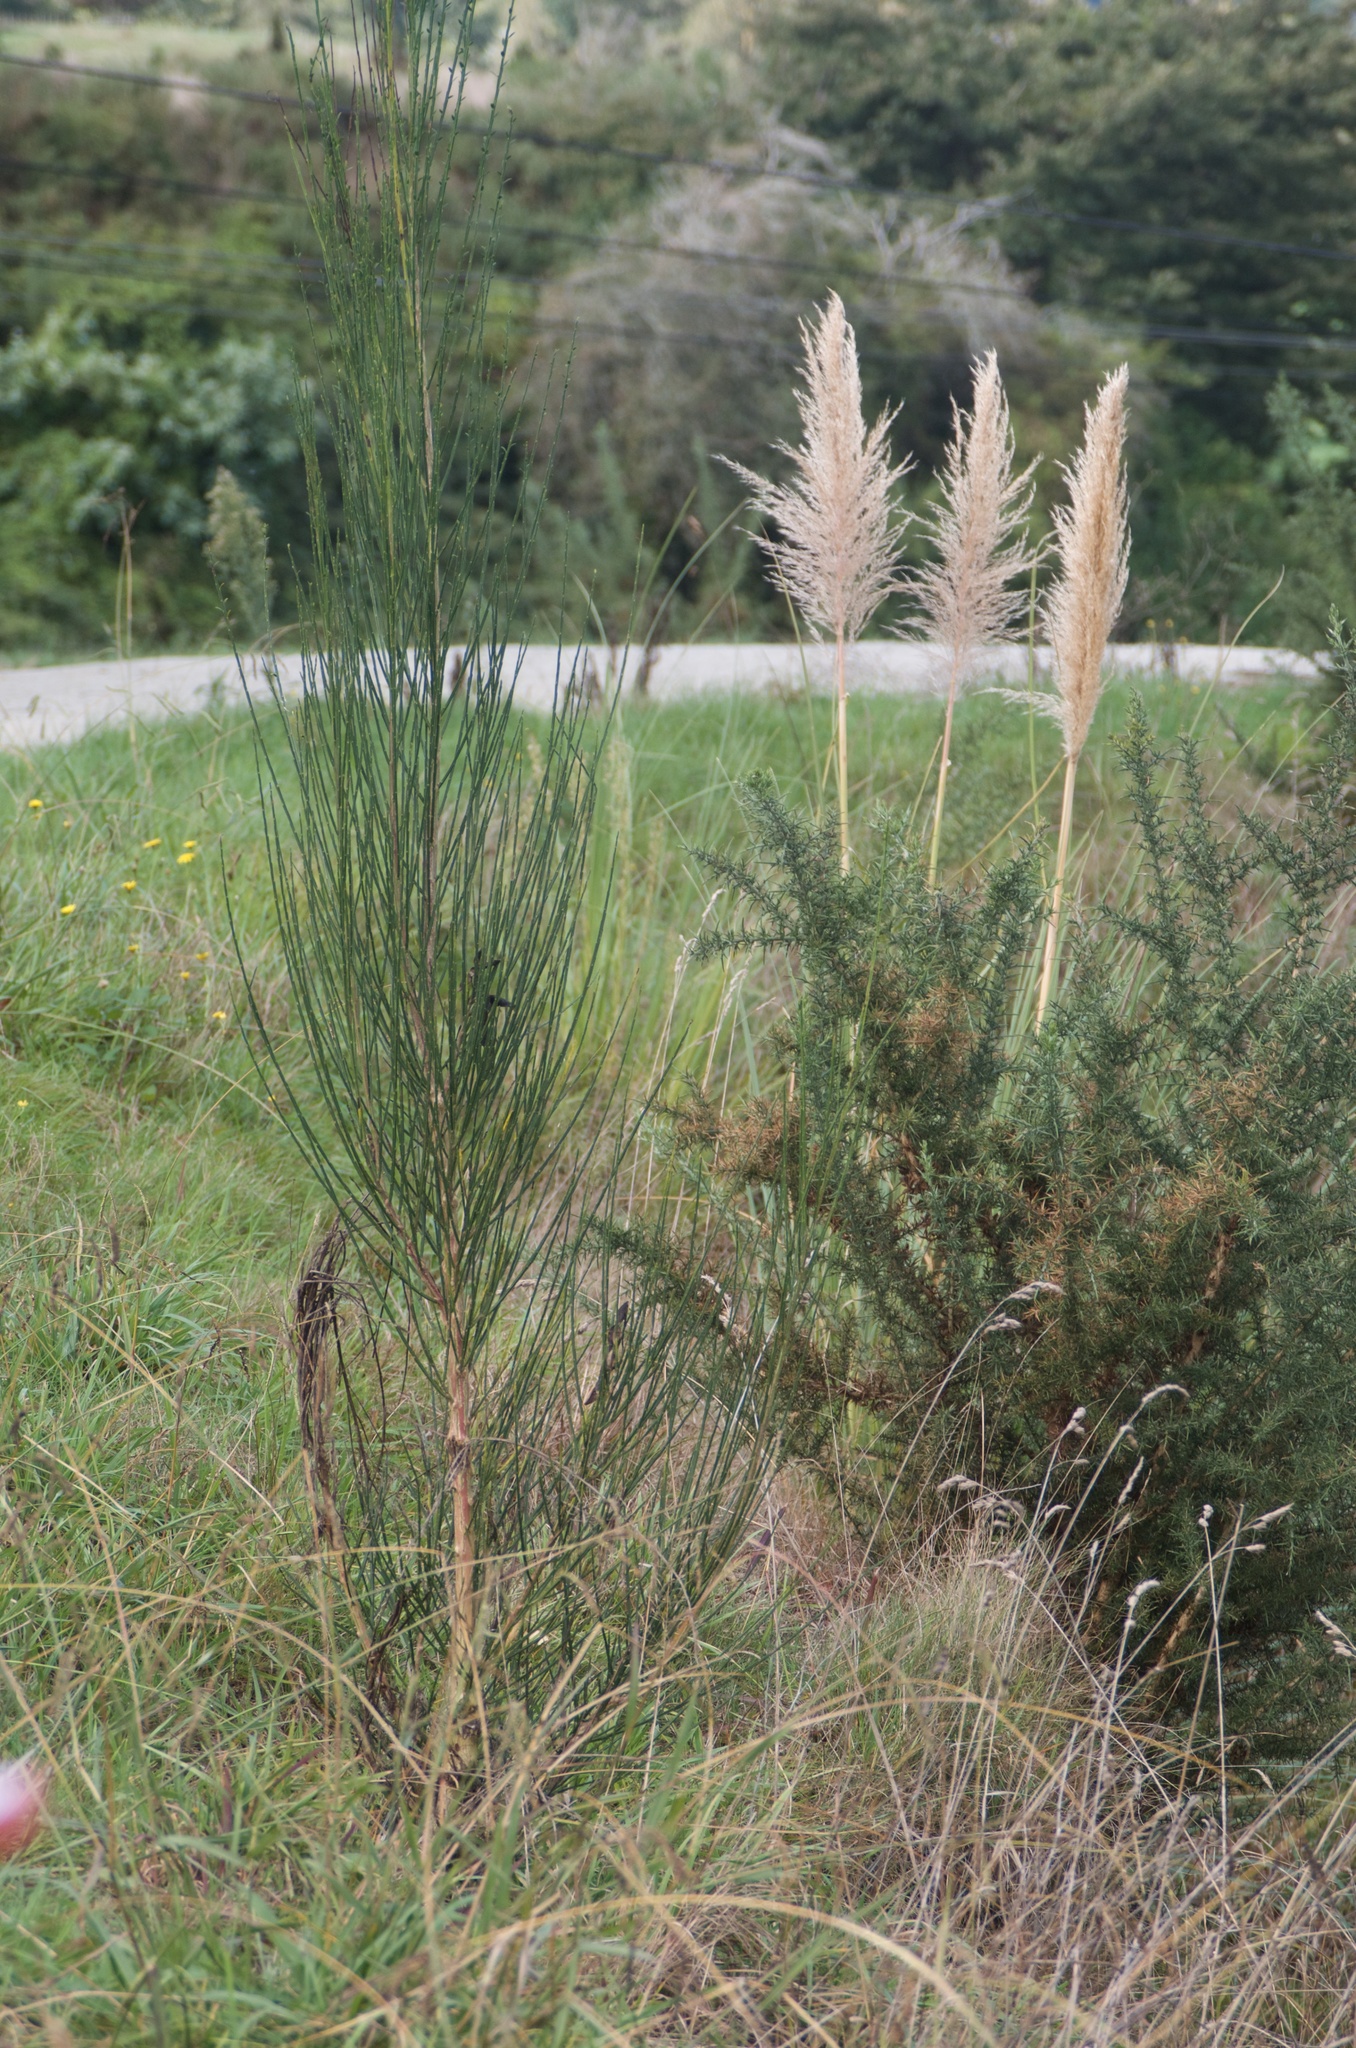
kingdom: Plantae
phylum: Tracheophyta
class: Magnoliopsida
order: Fabales
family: Fabaceae
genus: Cytisus
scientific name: Cytisus scoparius
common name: Scotch broom
